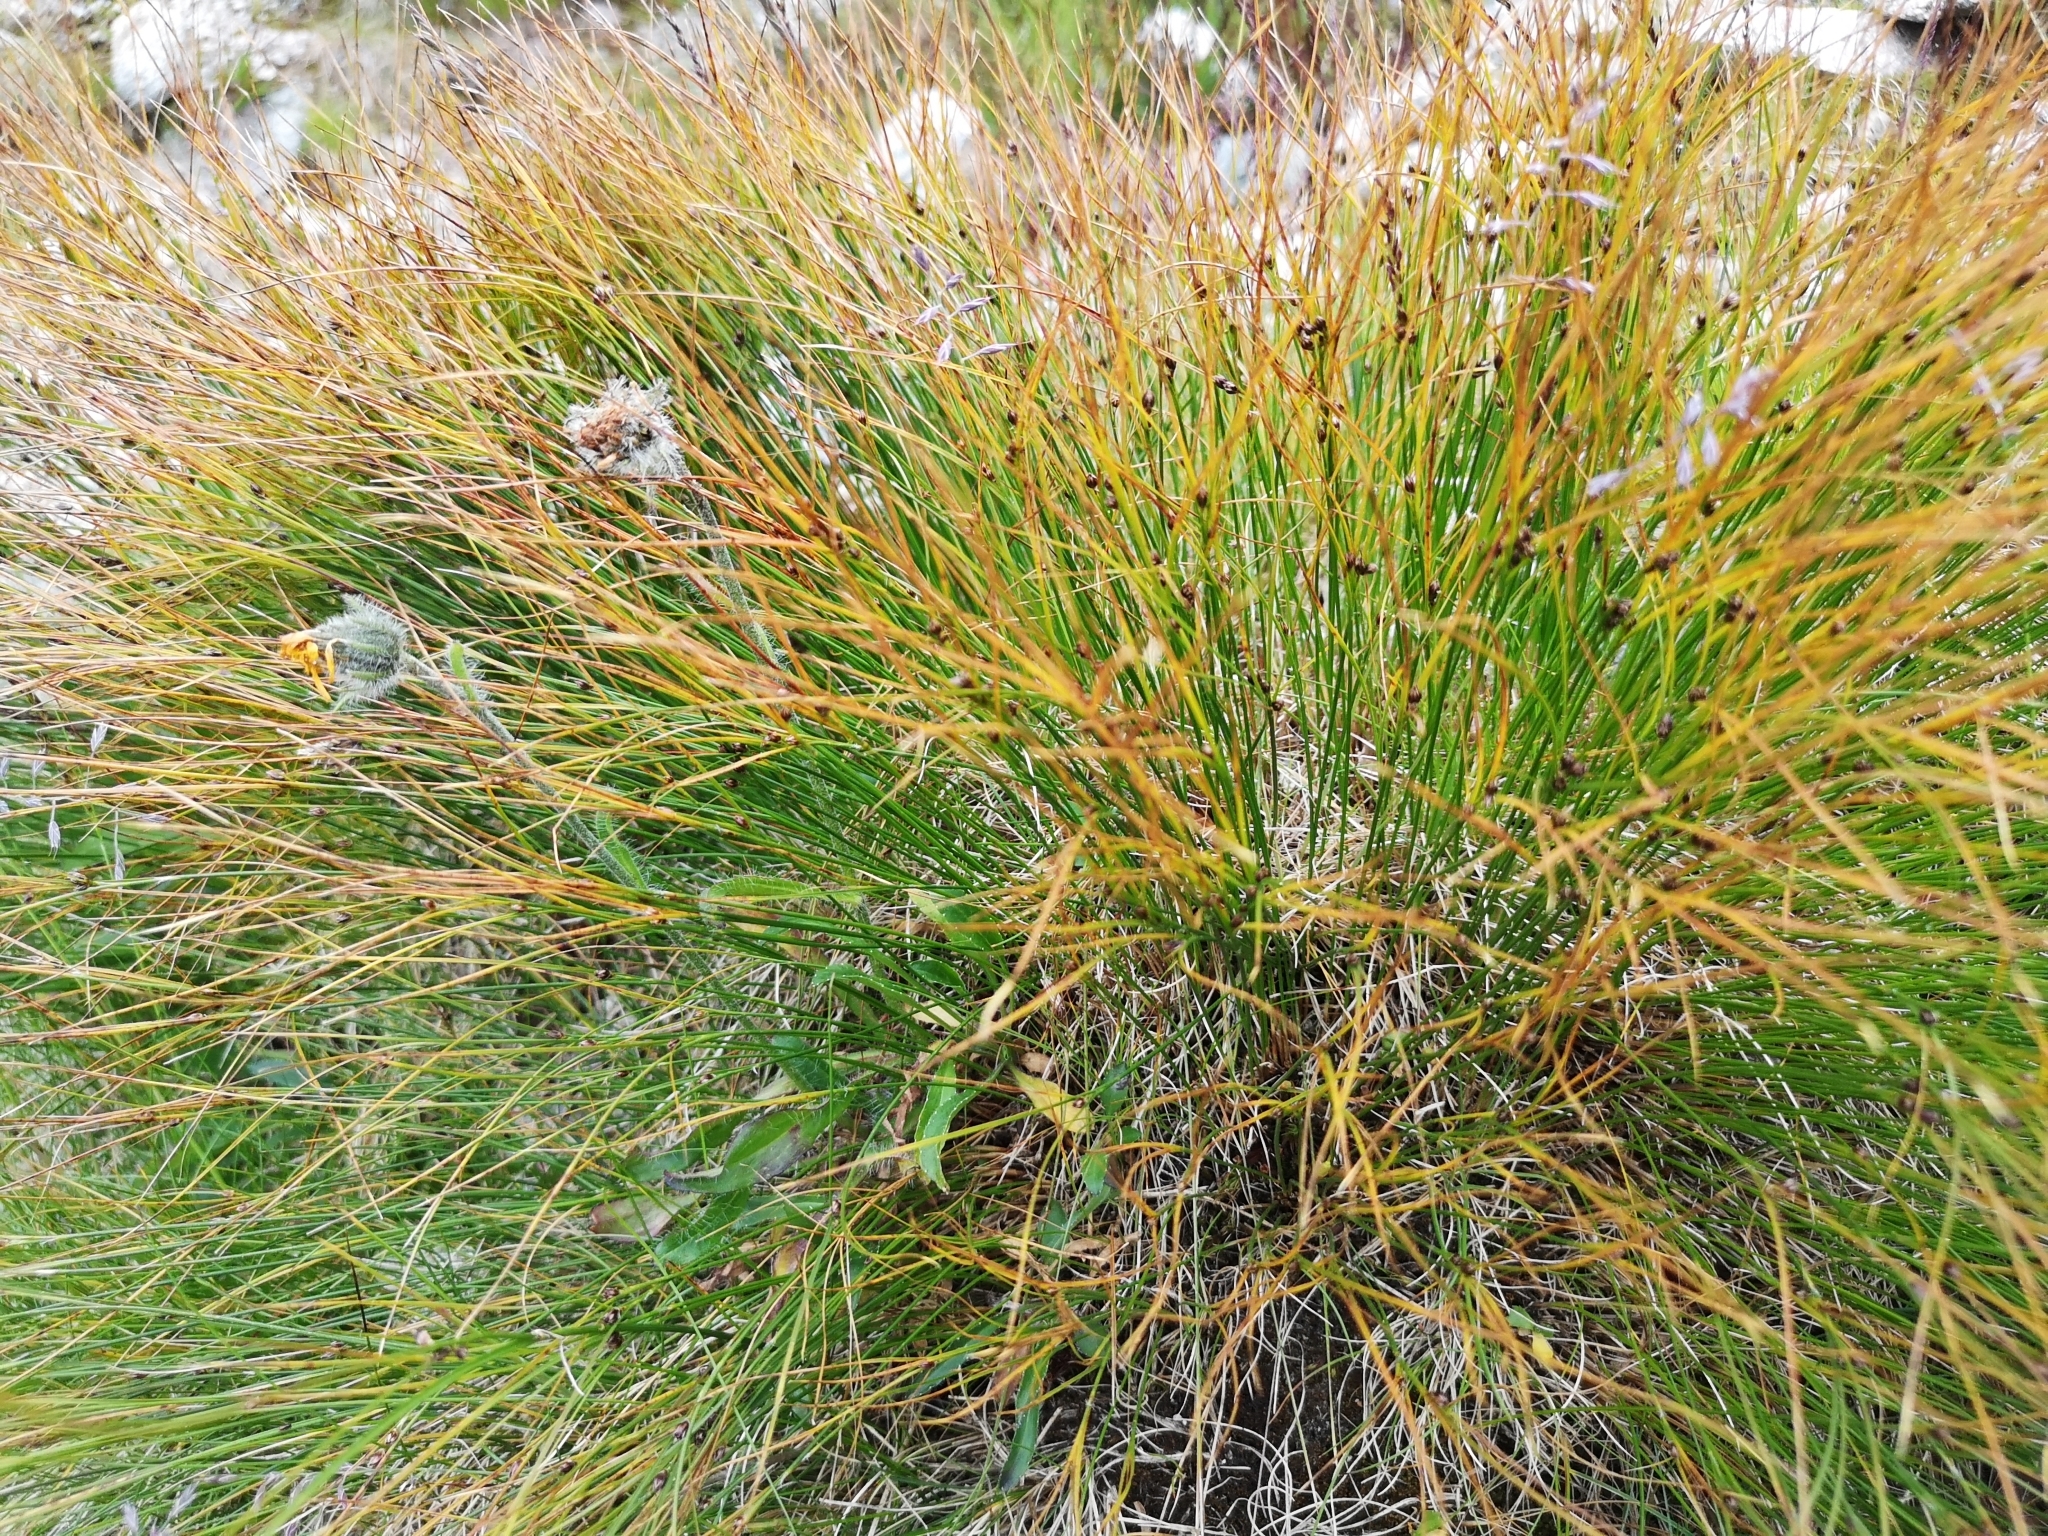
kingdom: Plantae
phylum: Tracheophyta
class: Liliopsida
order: Poales
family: Juncaceae
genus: Oreojuncus
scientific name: Oreojuncus trifidus
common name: Highland rush
